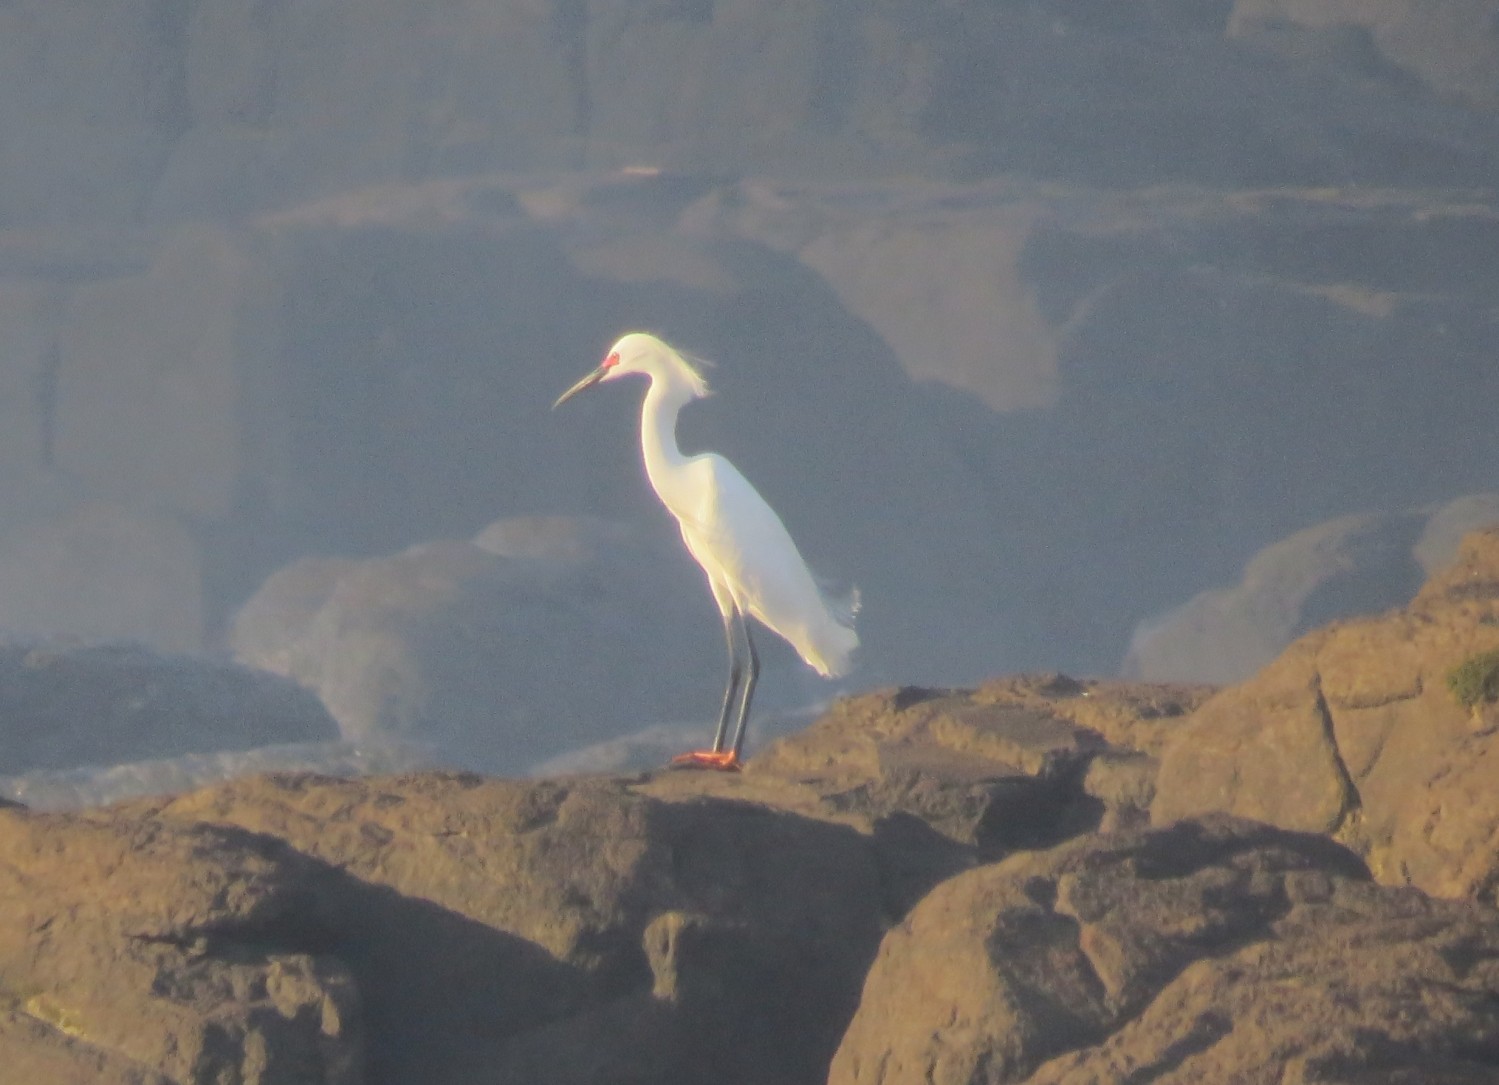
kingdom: Animalia
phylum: Chordata
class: Aves
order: Pelecaniformes
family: Ardeidae
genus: Egretta
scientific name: Egretta thula
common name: Snowy egret
